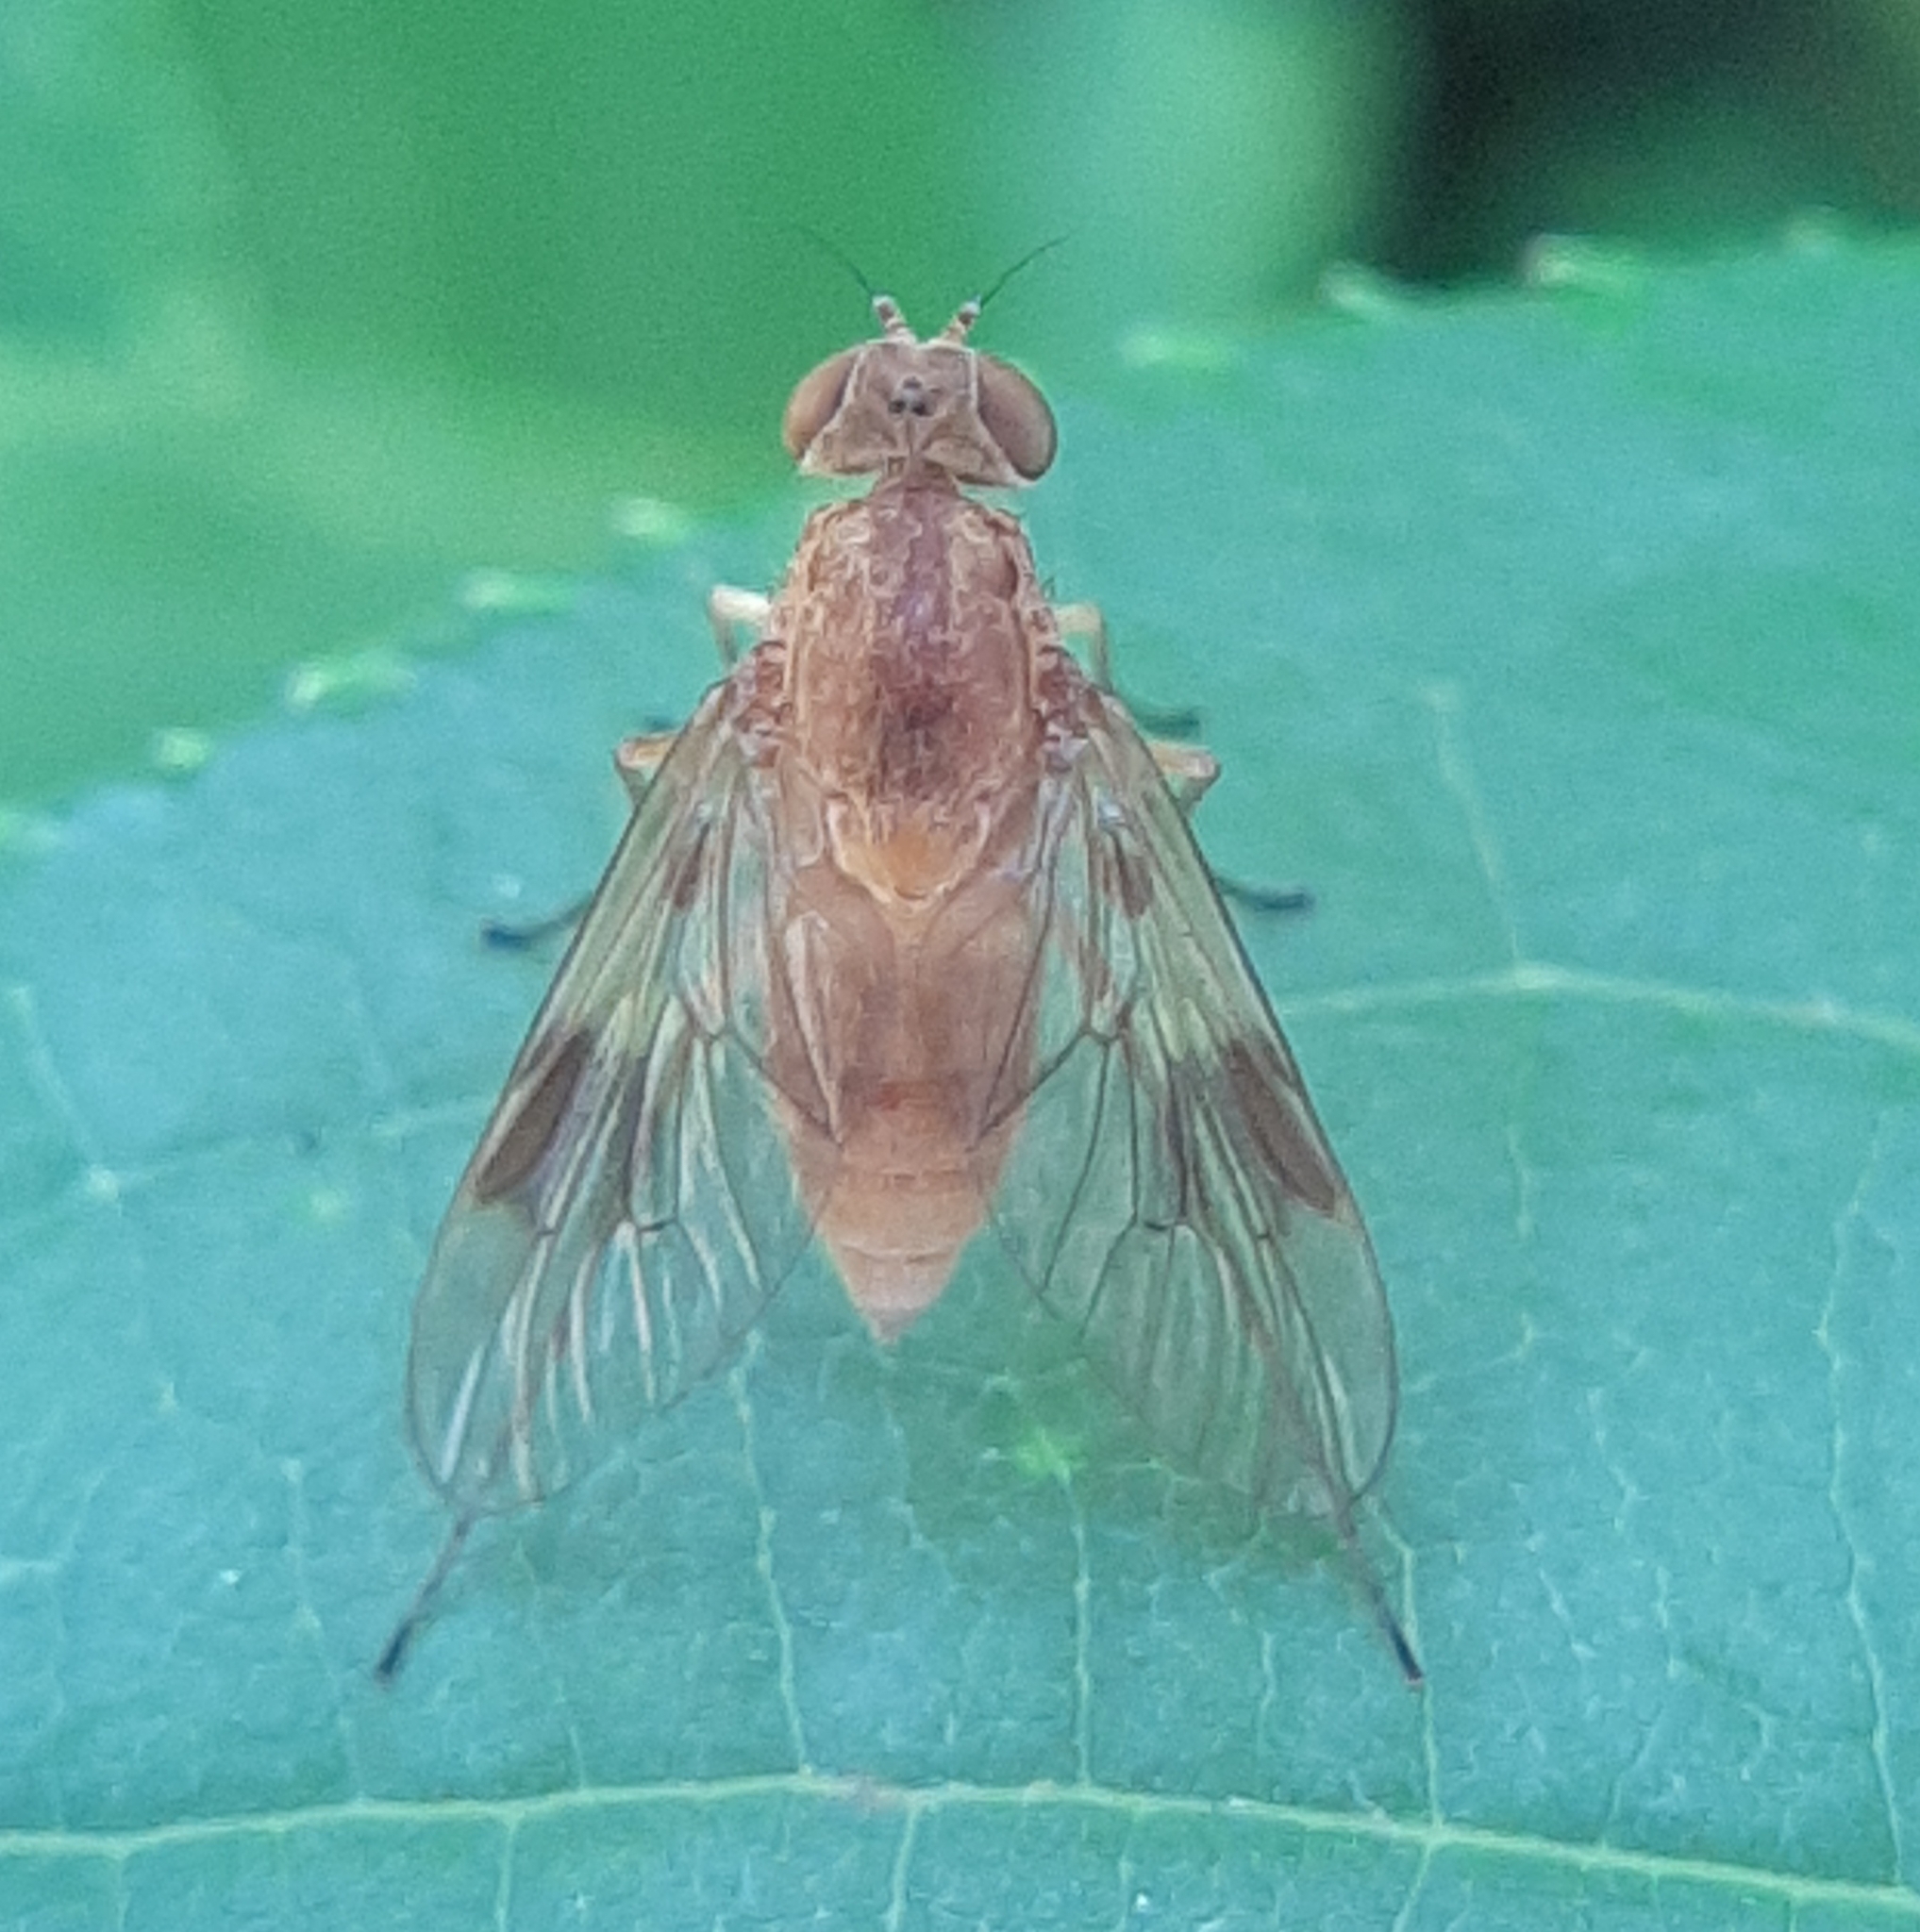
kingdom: Animalia
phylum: Arthropoda
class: Insecta
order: Diptera
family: Rhagionidae
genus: Chrysopilus
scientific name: Chrysopilus quadratus
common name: Quadrate snipe fly
